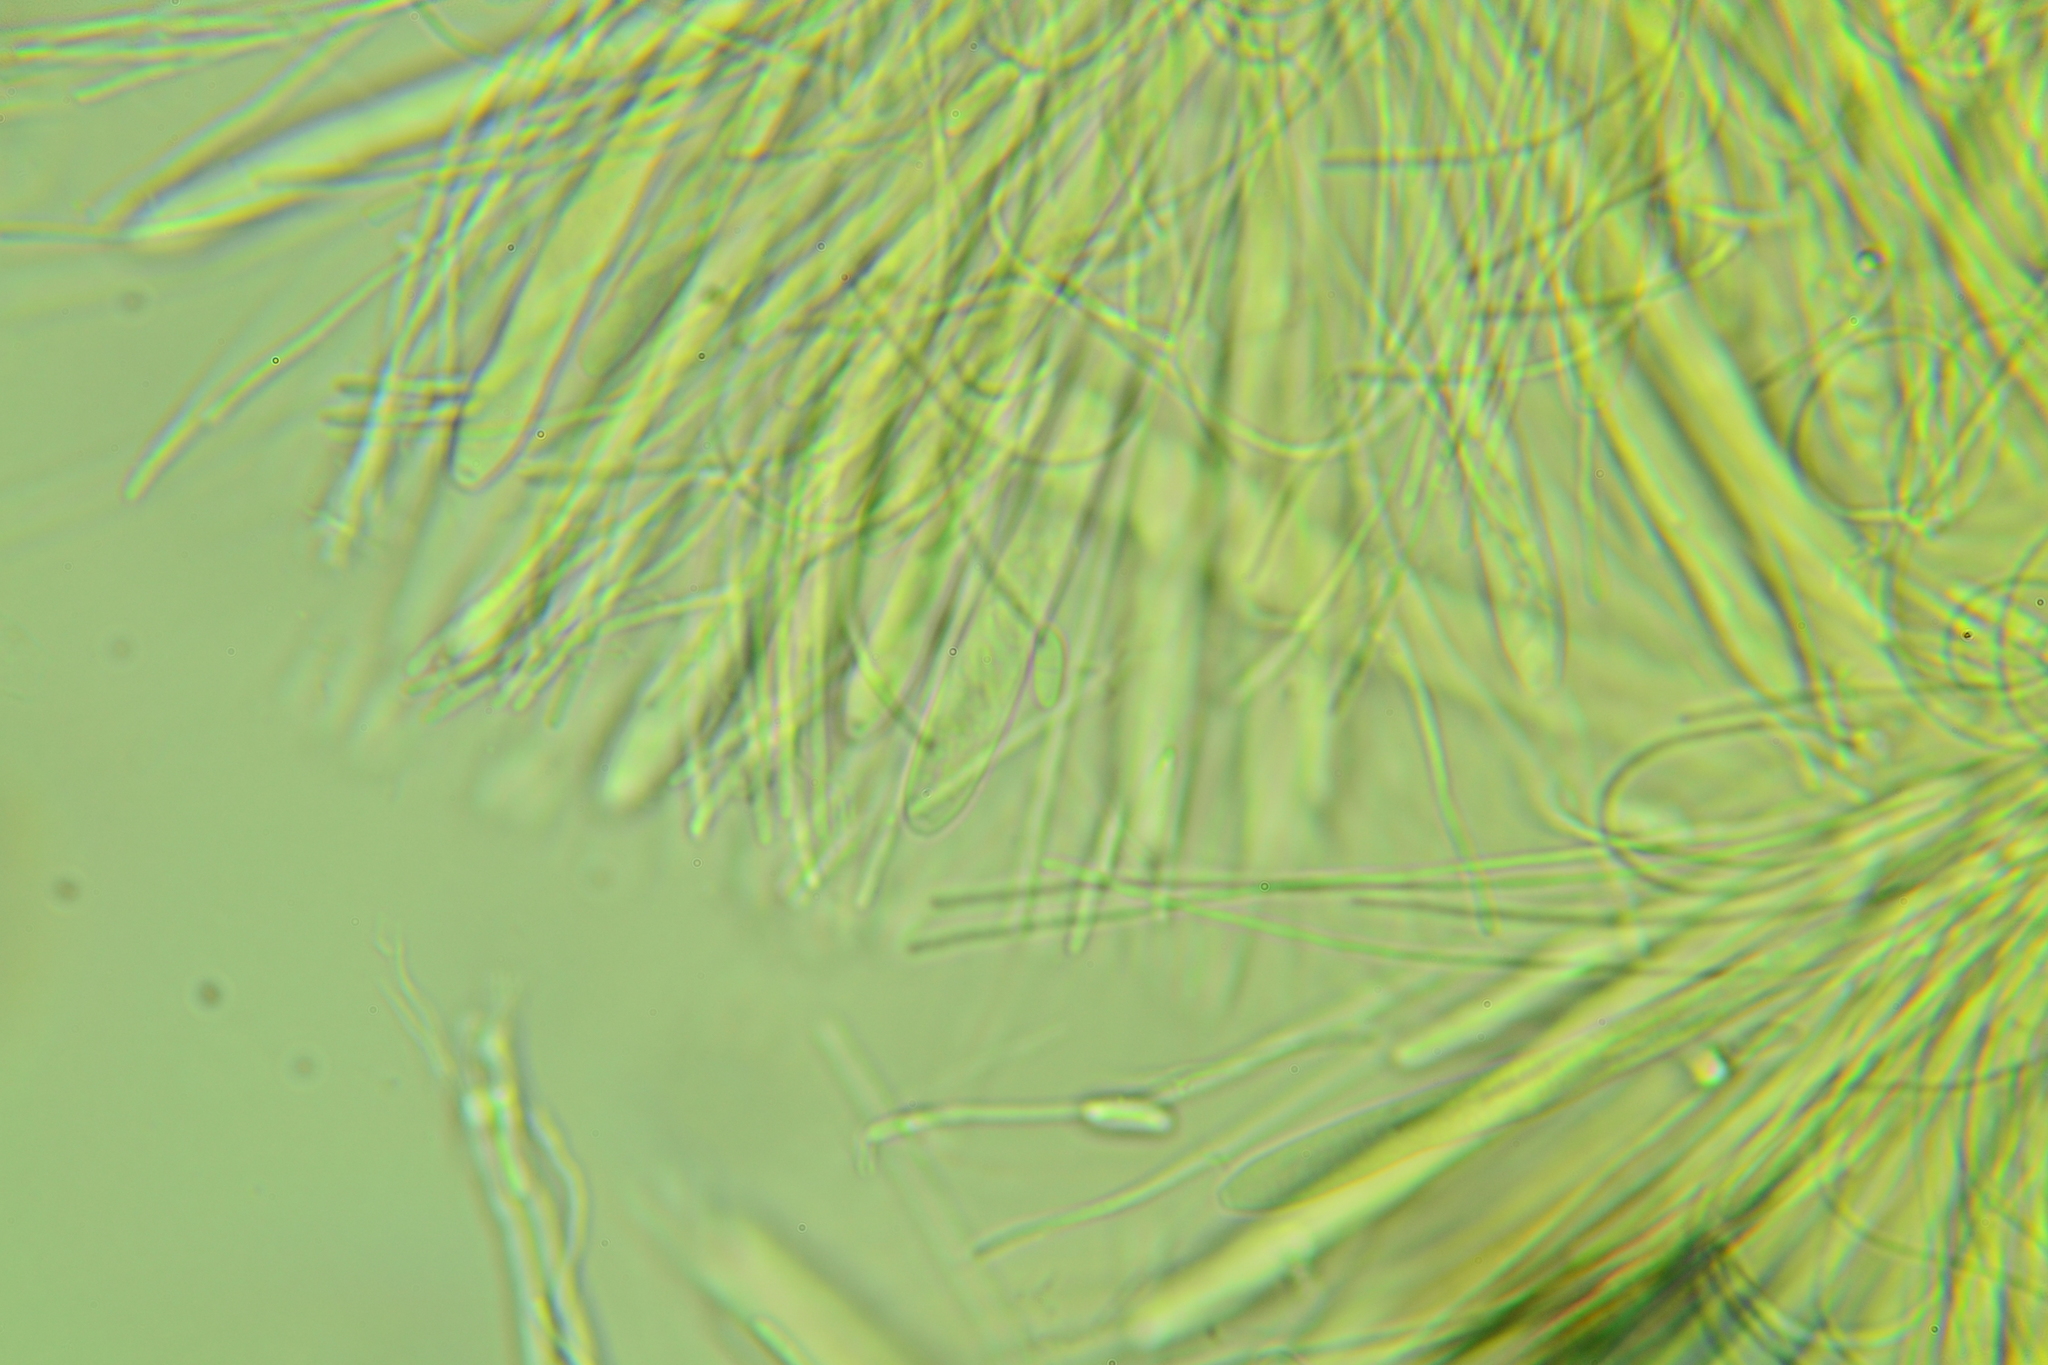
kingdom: Fungi
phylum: Ascomycota
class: Leotiomycetes
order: Helotiales
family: Pezizellaceae
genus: Calycina
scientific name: Calycina citrina
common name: Yellow fairy cups
